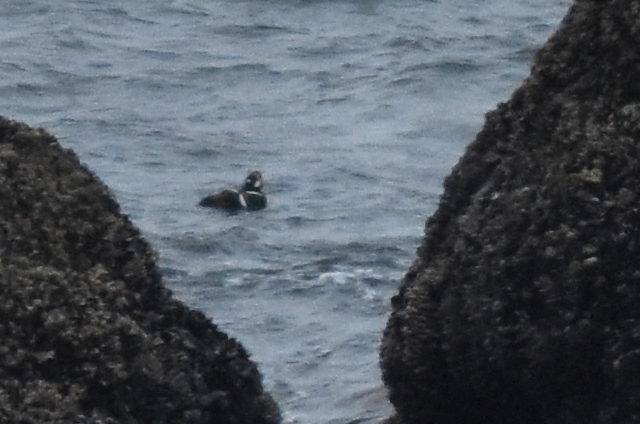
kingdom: Animalia
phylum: Chordata
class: Aves
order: Anseriformes
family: Anatidae
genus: Histrionicus
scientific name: Histrionicus histrionicus
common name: Harlequin duck
